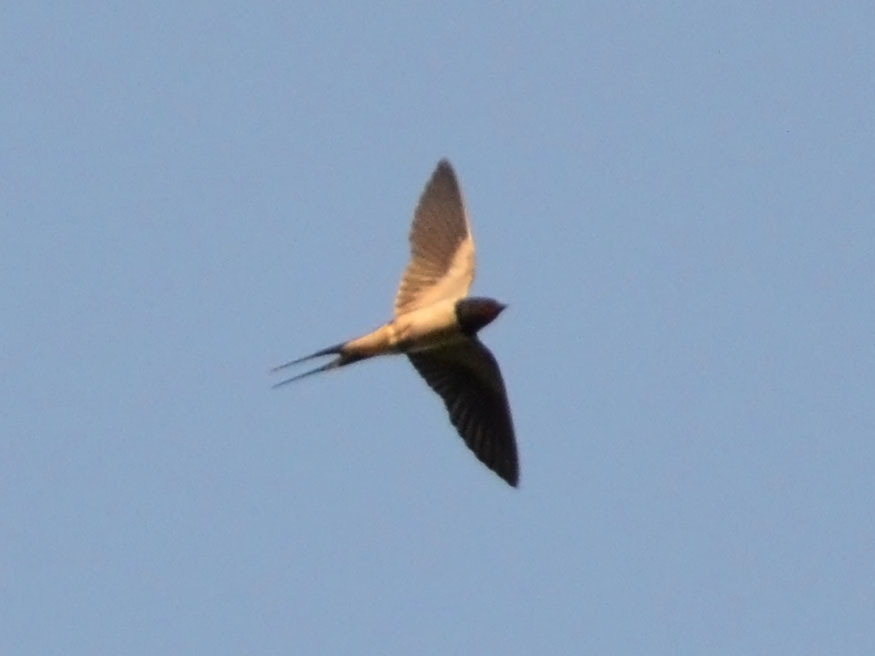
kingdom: Animalia
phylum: Chordata
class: Aves
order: Passeriformes
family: Hirundinidae
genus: Hirundo
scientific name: Hirundo rustica
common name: Barn swallow
